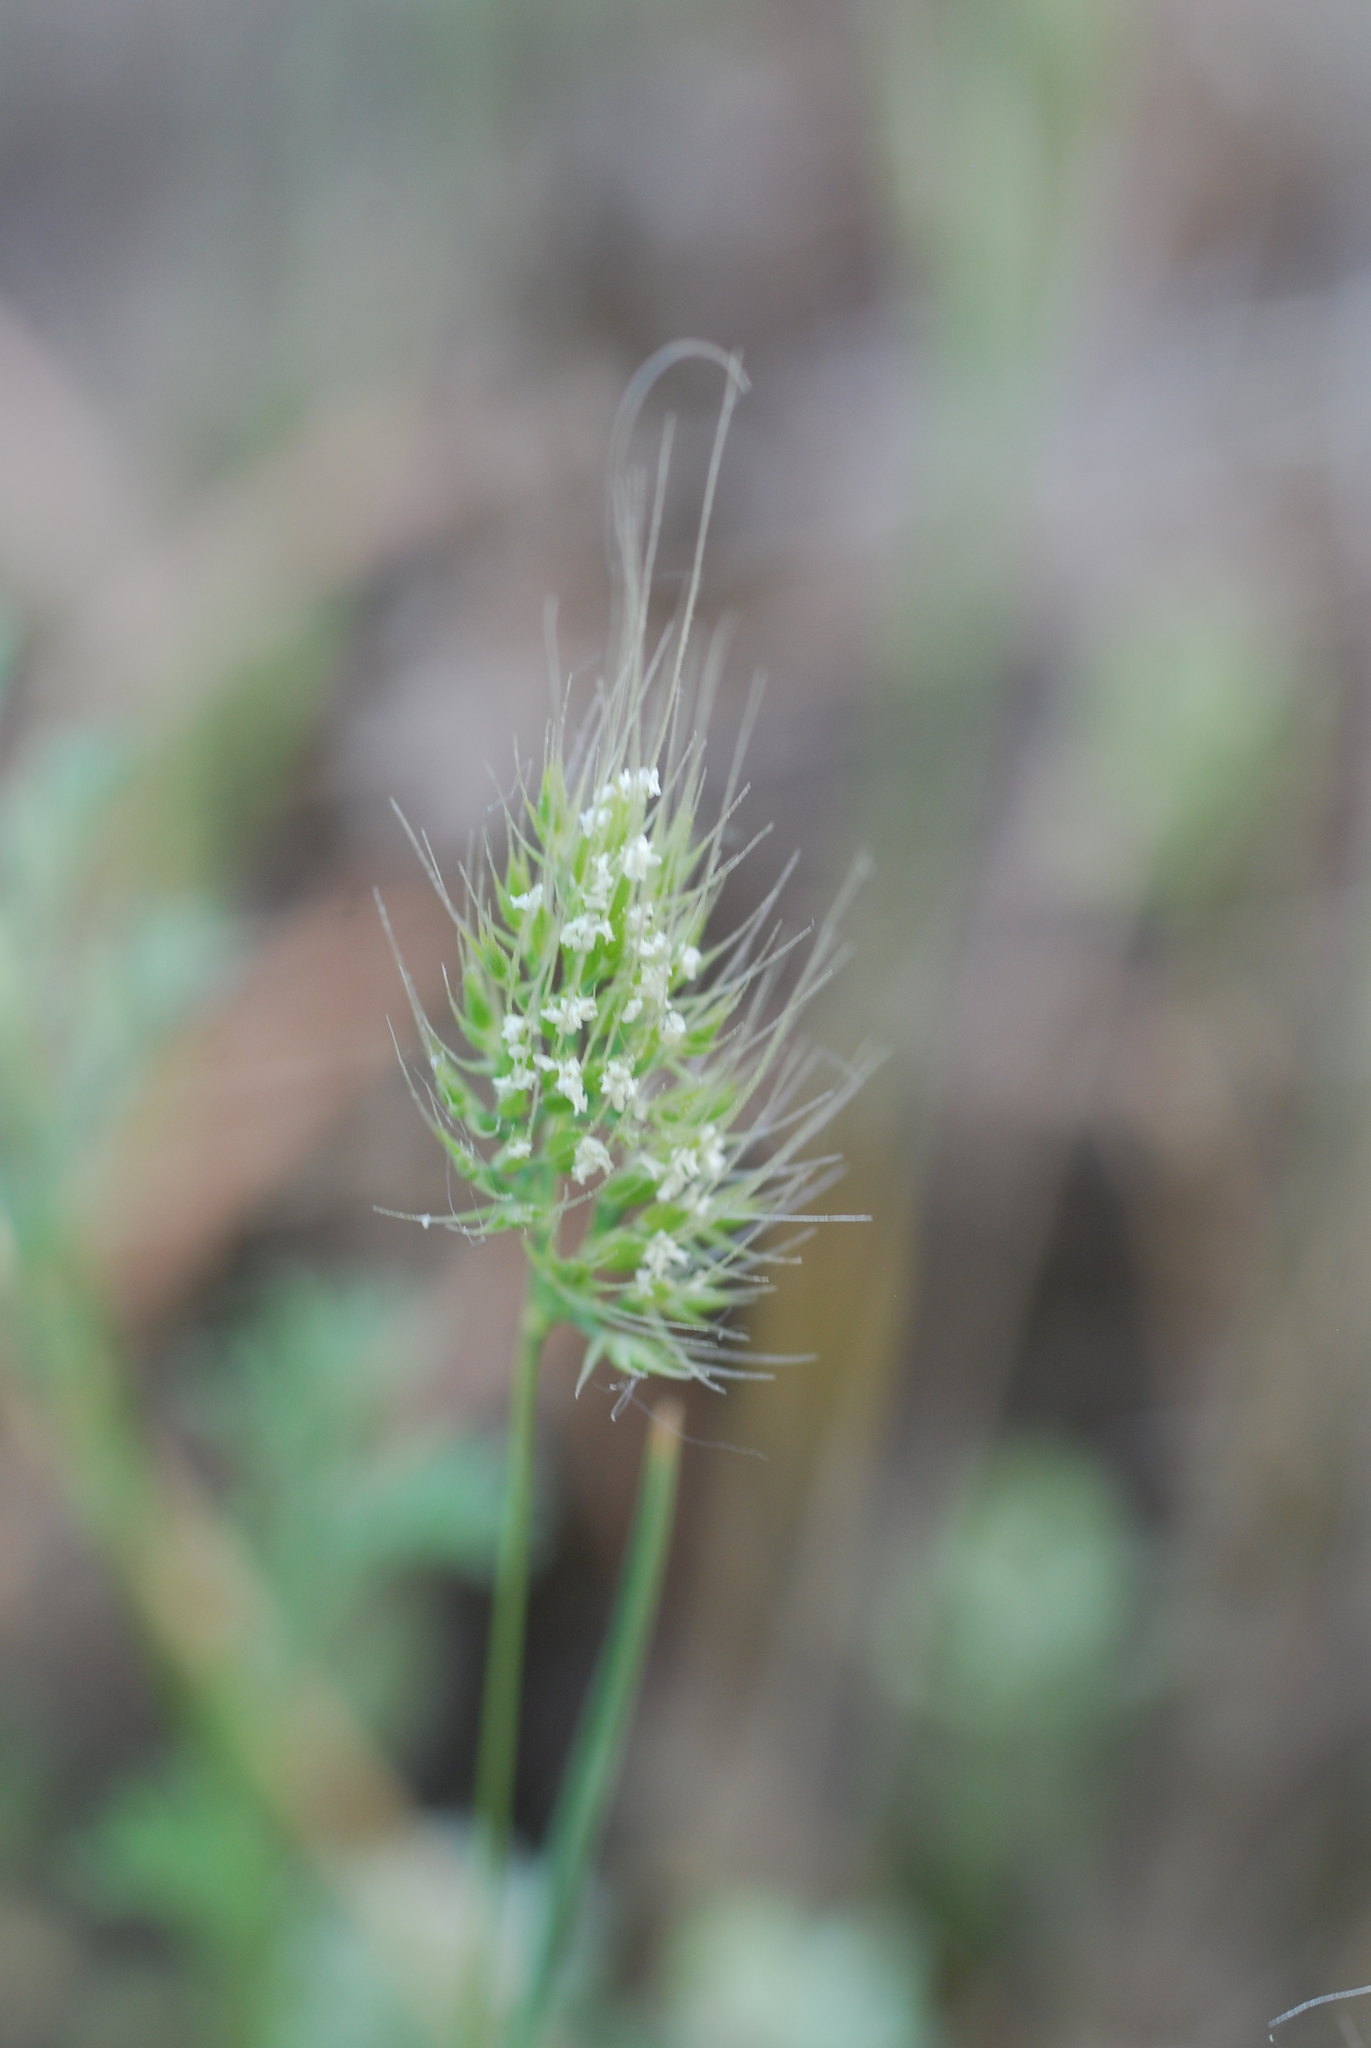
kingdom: Plantae
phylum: Tracheophyta
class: Liliopsida
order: Poales
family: Poaceae
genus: Cynosurus
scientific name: Cynosurus echinatus
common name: Rough dog's-tail
